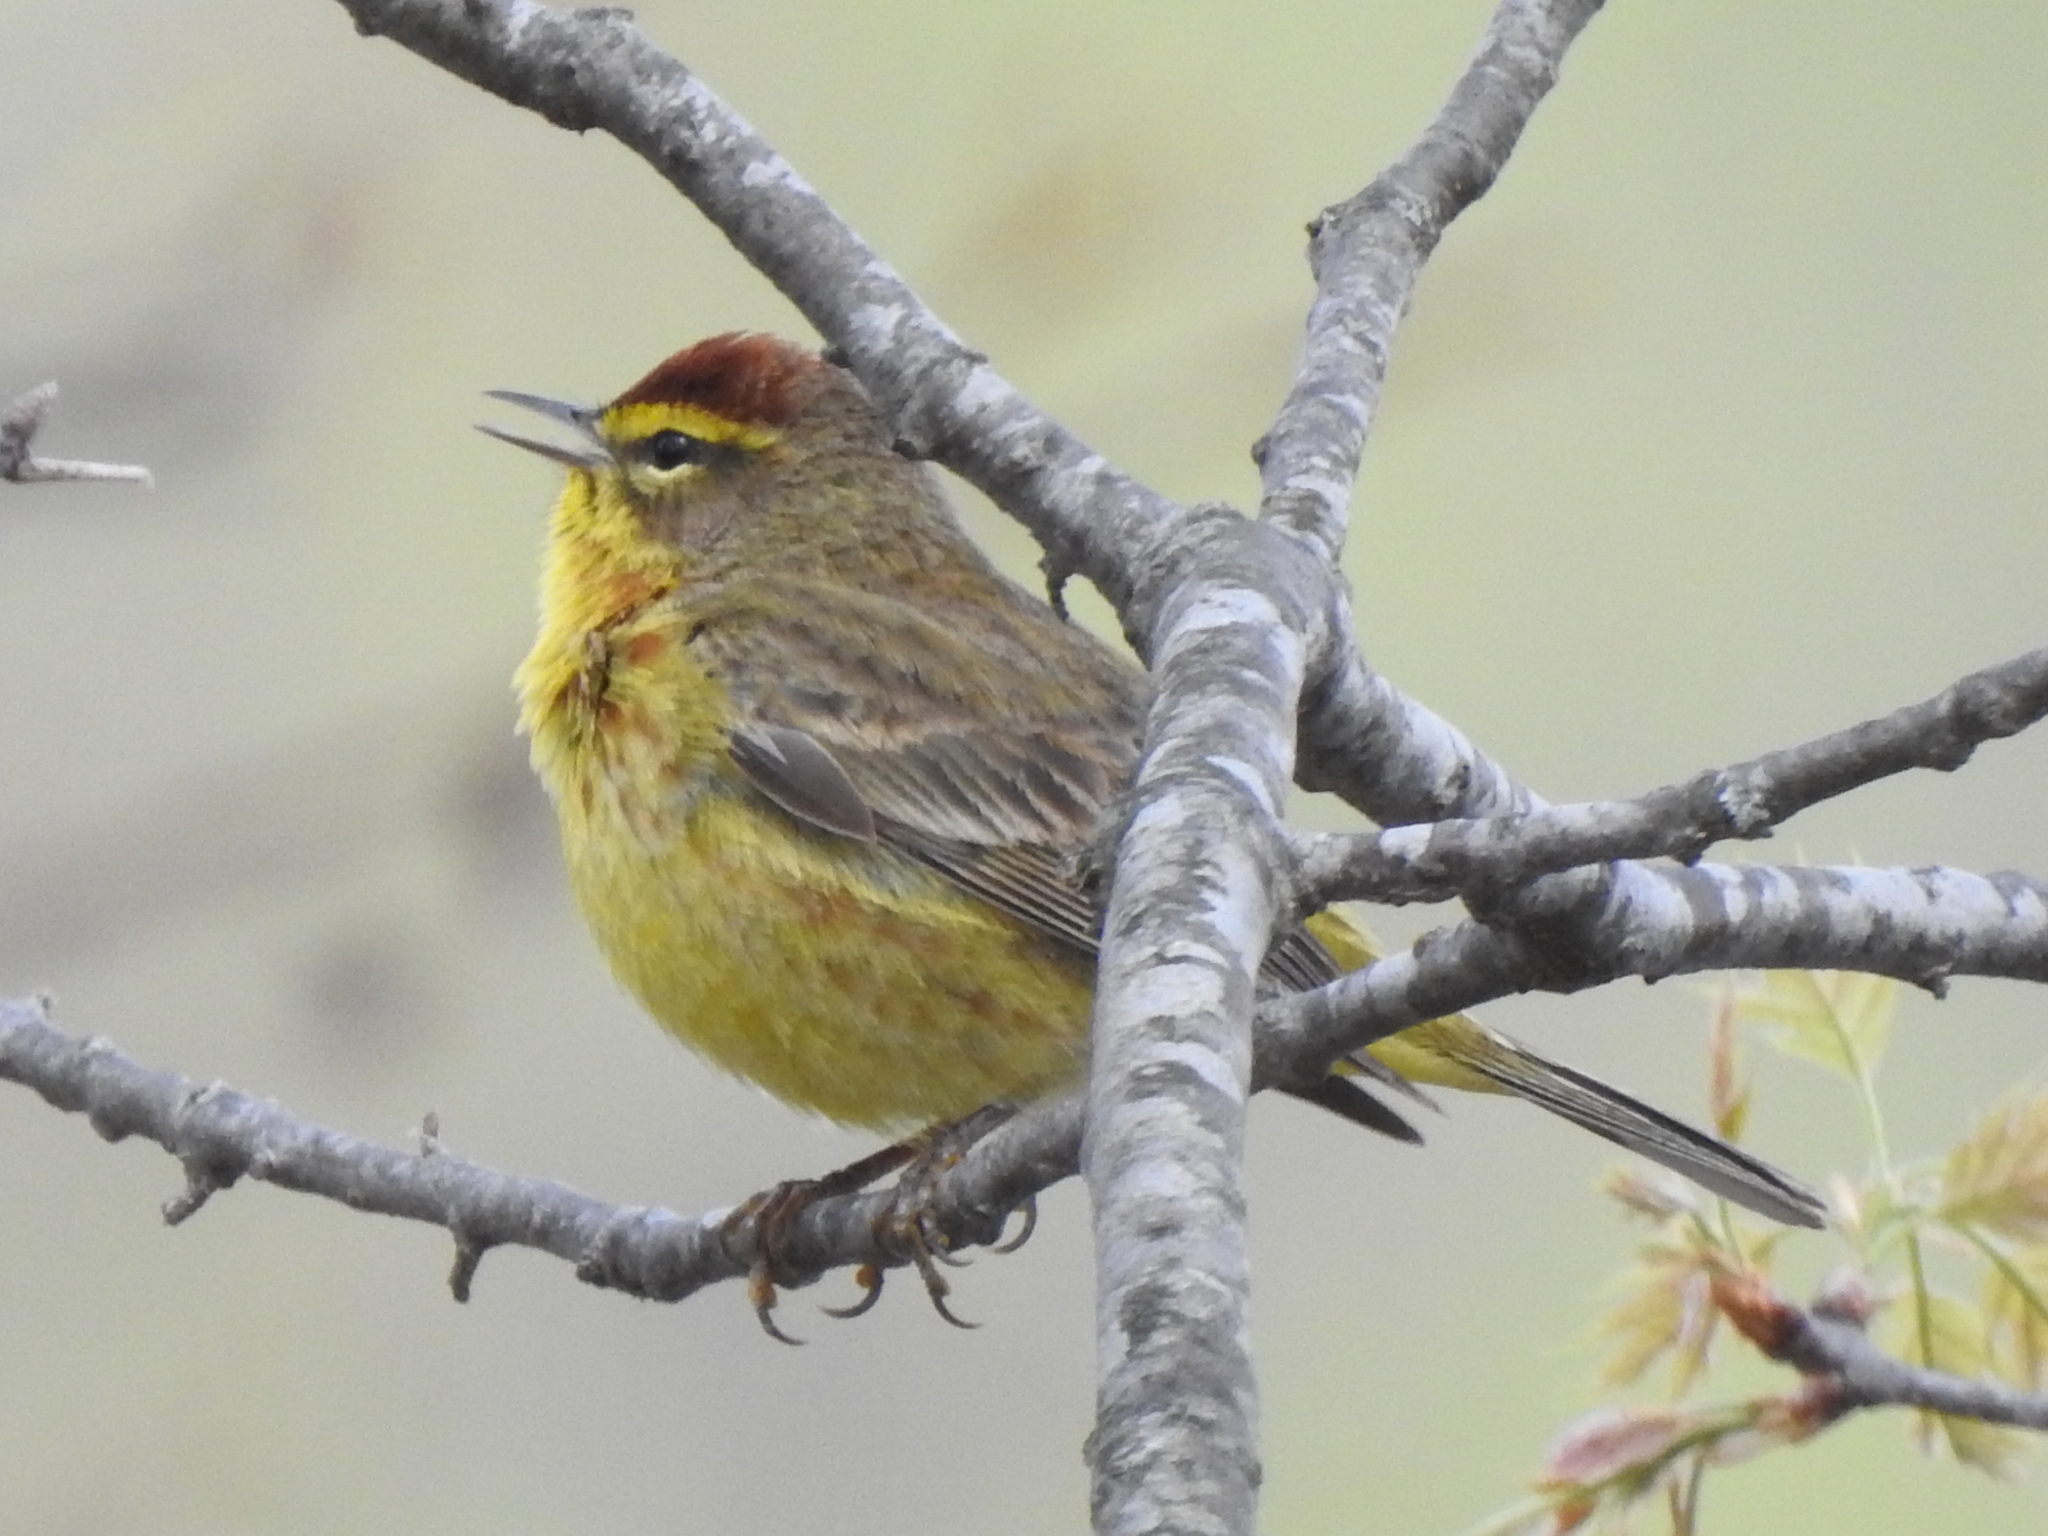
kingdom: Animalia
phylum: Chordata
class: Aves
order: Passeriformes
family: Parulidae
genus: Setophaga
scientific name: Setophaga palmarum
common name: Palm warbler
